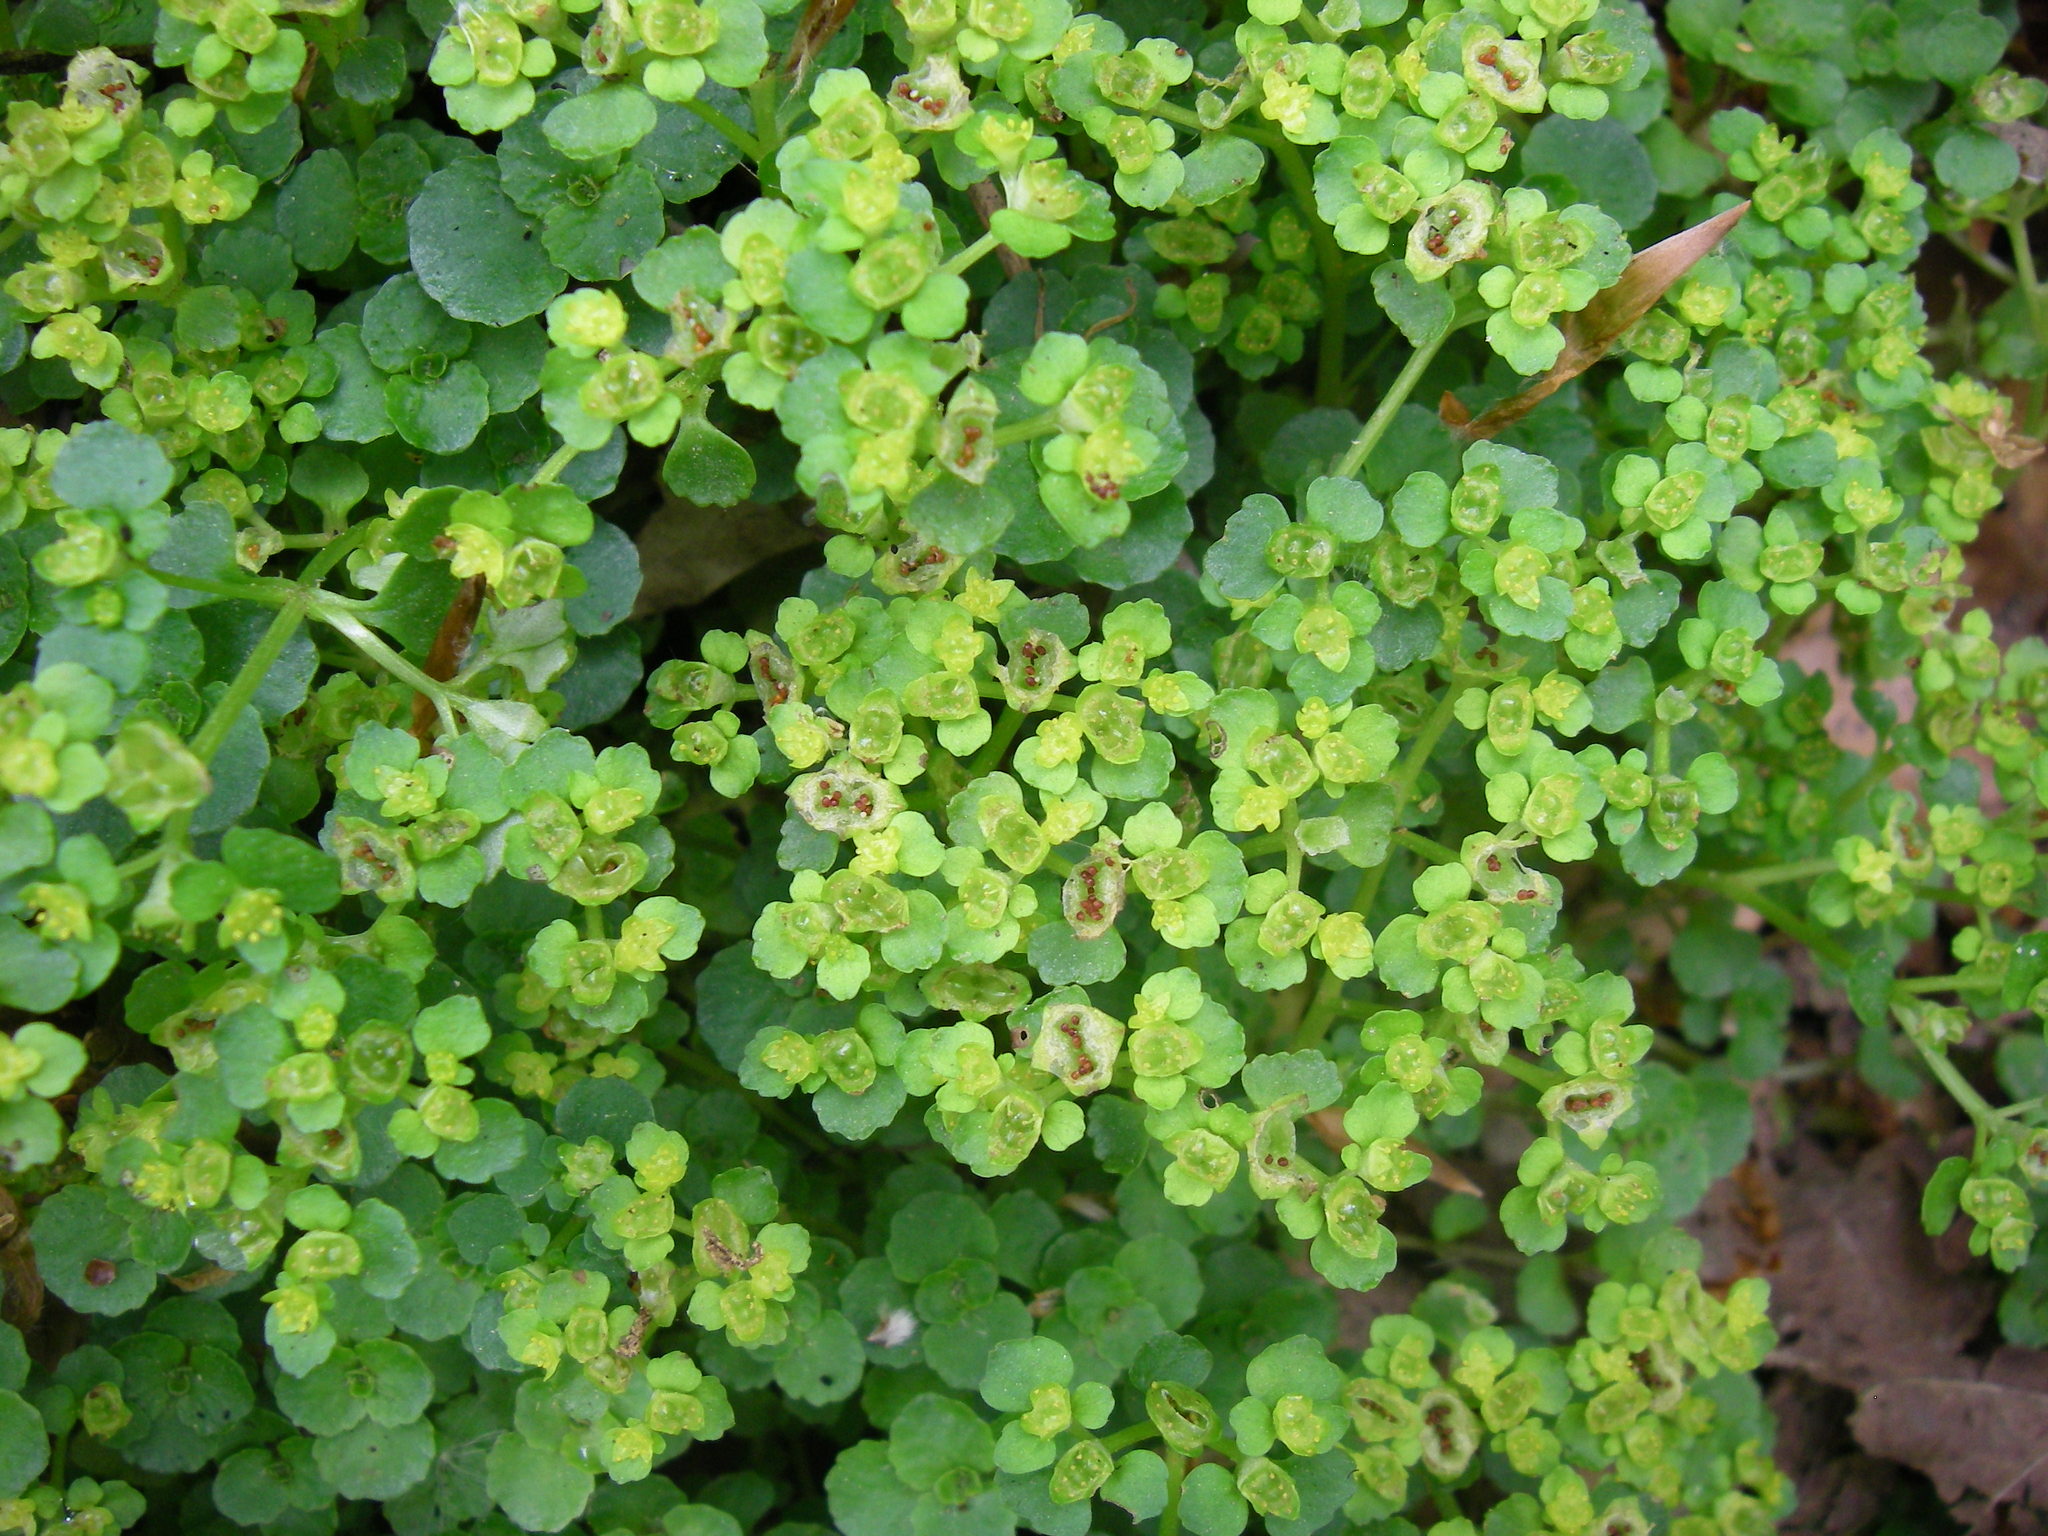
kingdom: Plantae
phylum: Tracheophyta
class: Magnoliopsida
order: Saxifragales
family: Saxifragaceae
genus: Chrysosplenium
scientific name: Chrysosplenium oppositifolium
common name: Opposite-leaved golden-saxifrage
